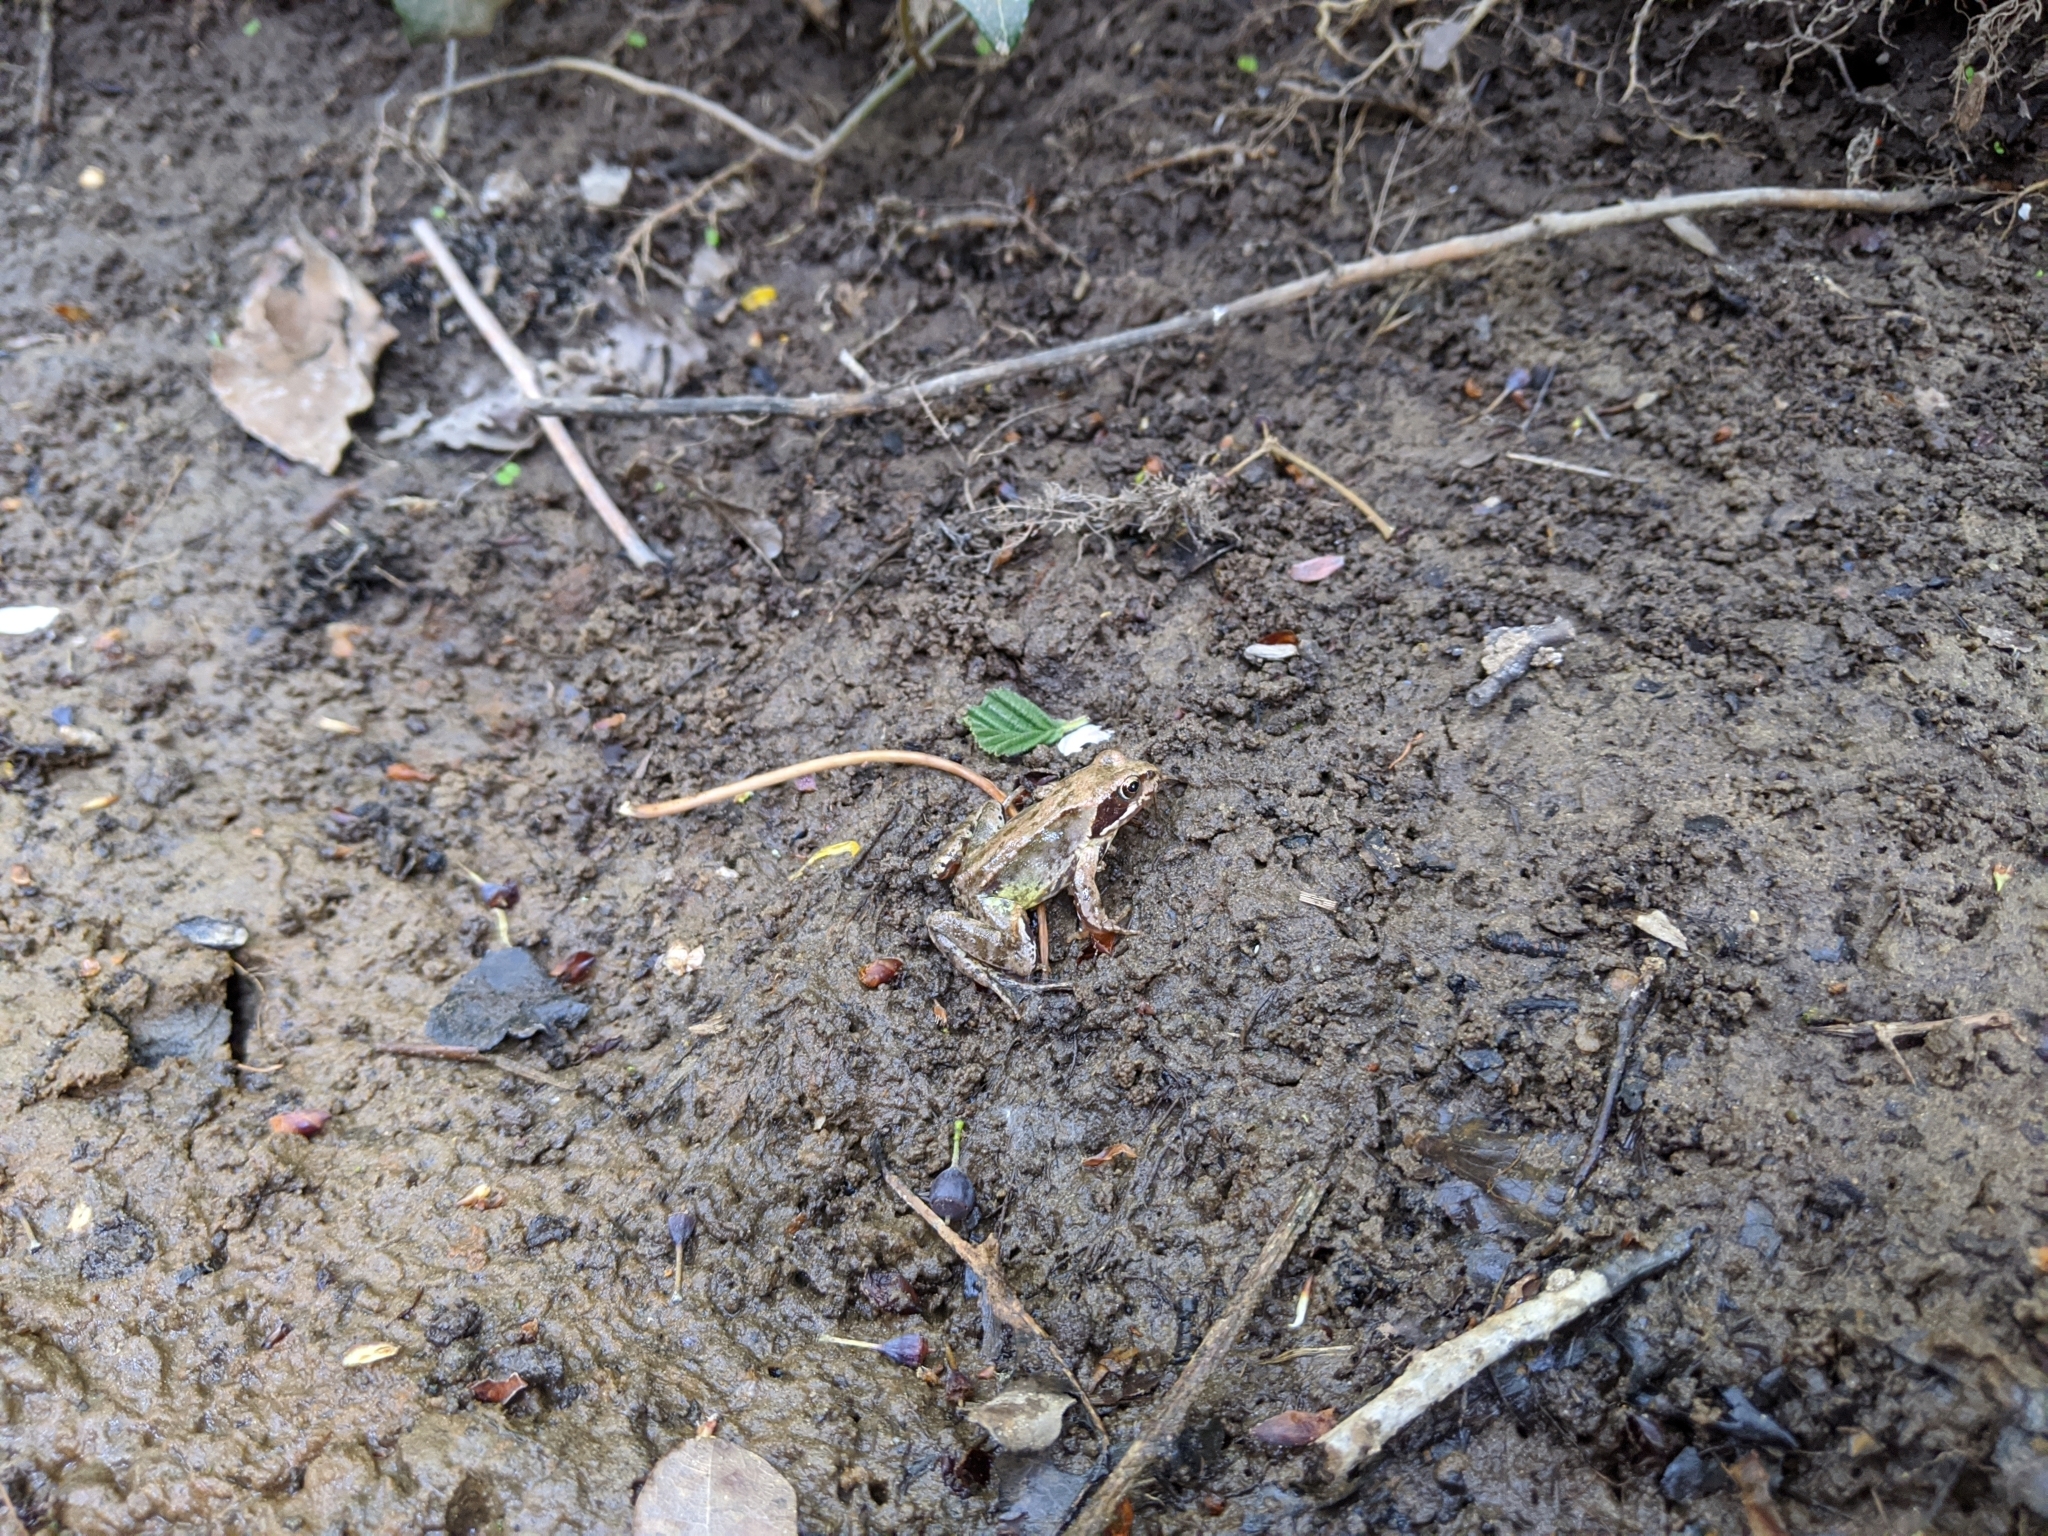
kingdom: Animalia
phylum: Chordata
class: Amphibia
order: Anura
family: Ranidae
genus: Rana
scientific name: Rana temporaria
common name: Common frog
